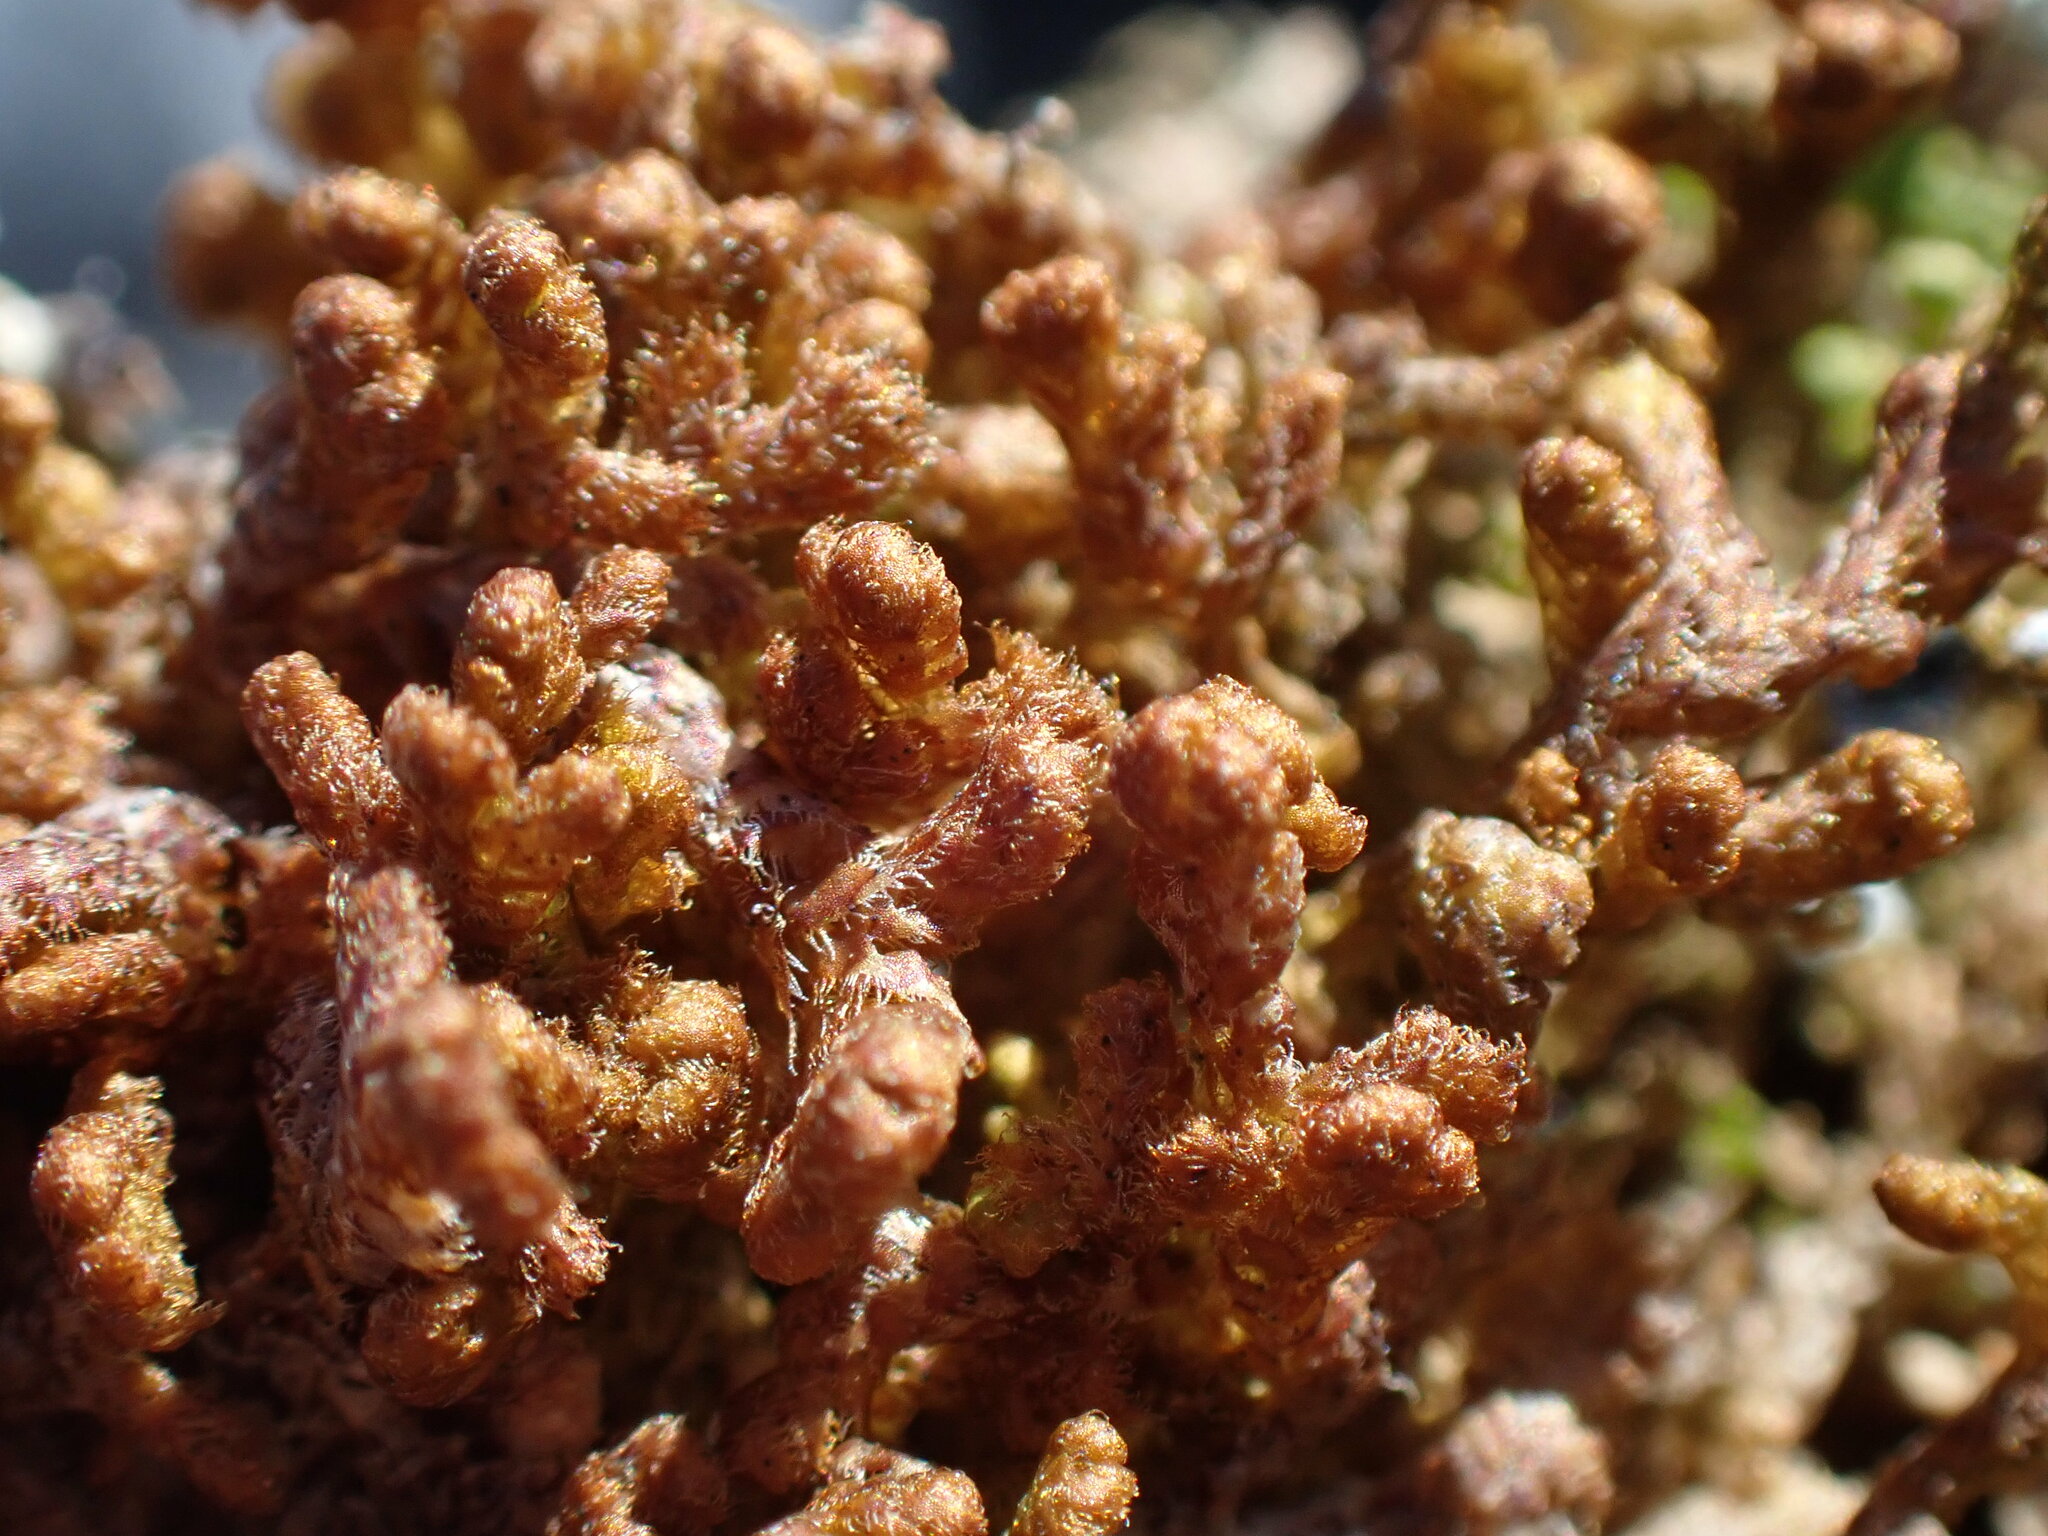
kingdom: Plantae
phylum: Marchantiophyta
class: Jungermanniopsida
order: Ptilidiales
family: Ptilidiaceae
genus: Ptilidium
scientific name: Ptilidium ciliare
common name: Ciliate fringewort
